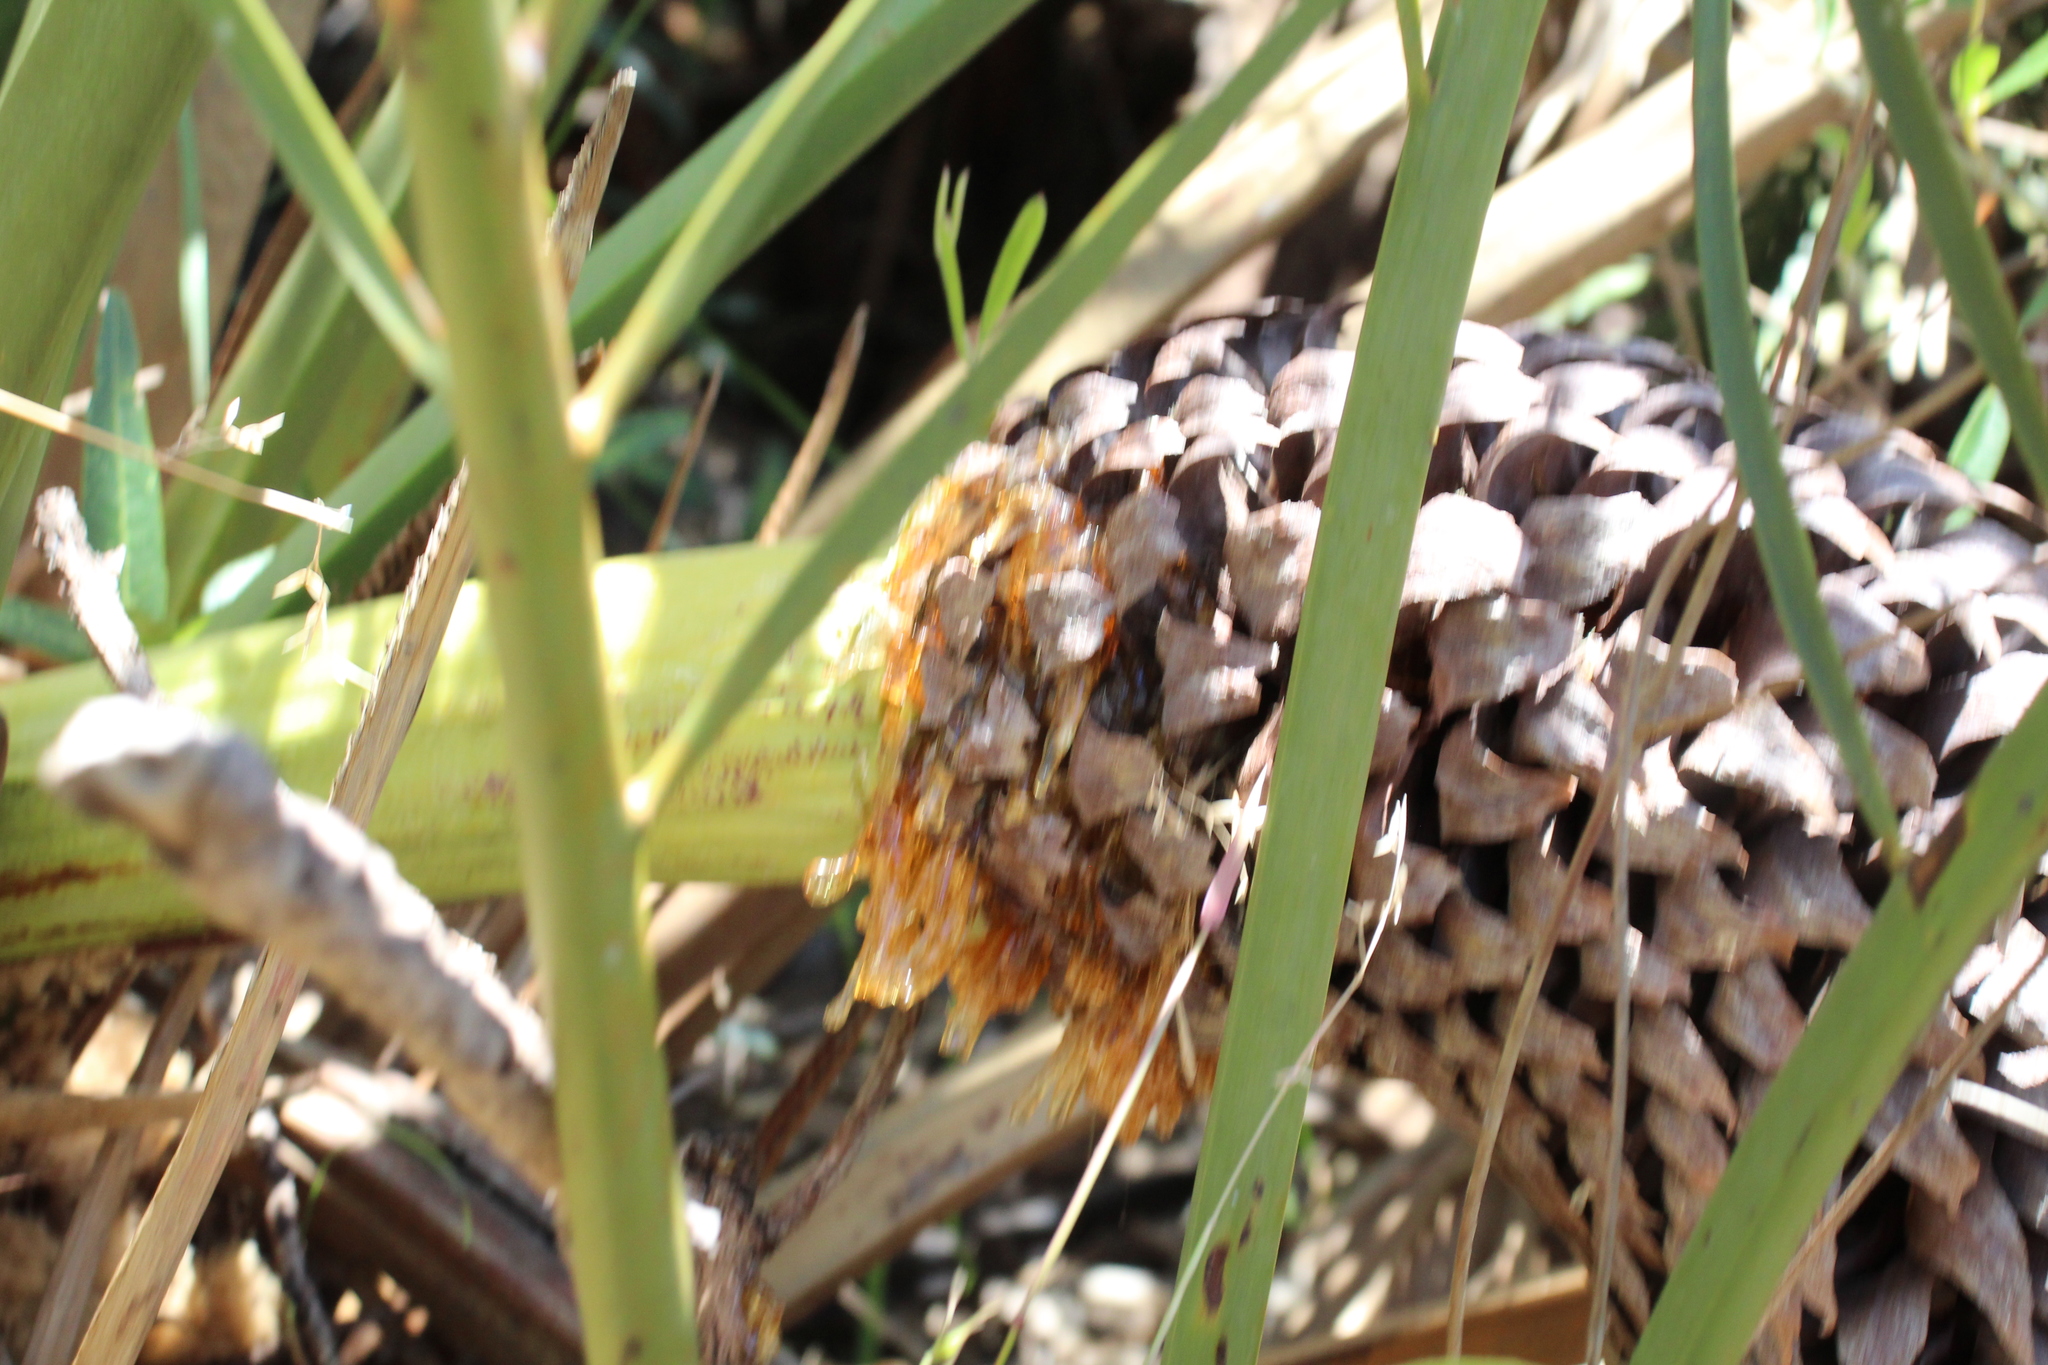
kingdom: Plantae
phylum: Tracheophyta
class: Cycadopsida
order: Cycadales
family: Zamiaceae
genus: Macrozamia
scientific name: Macrozamia fraseri
